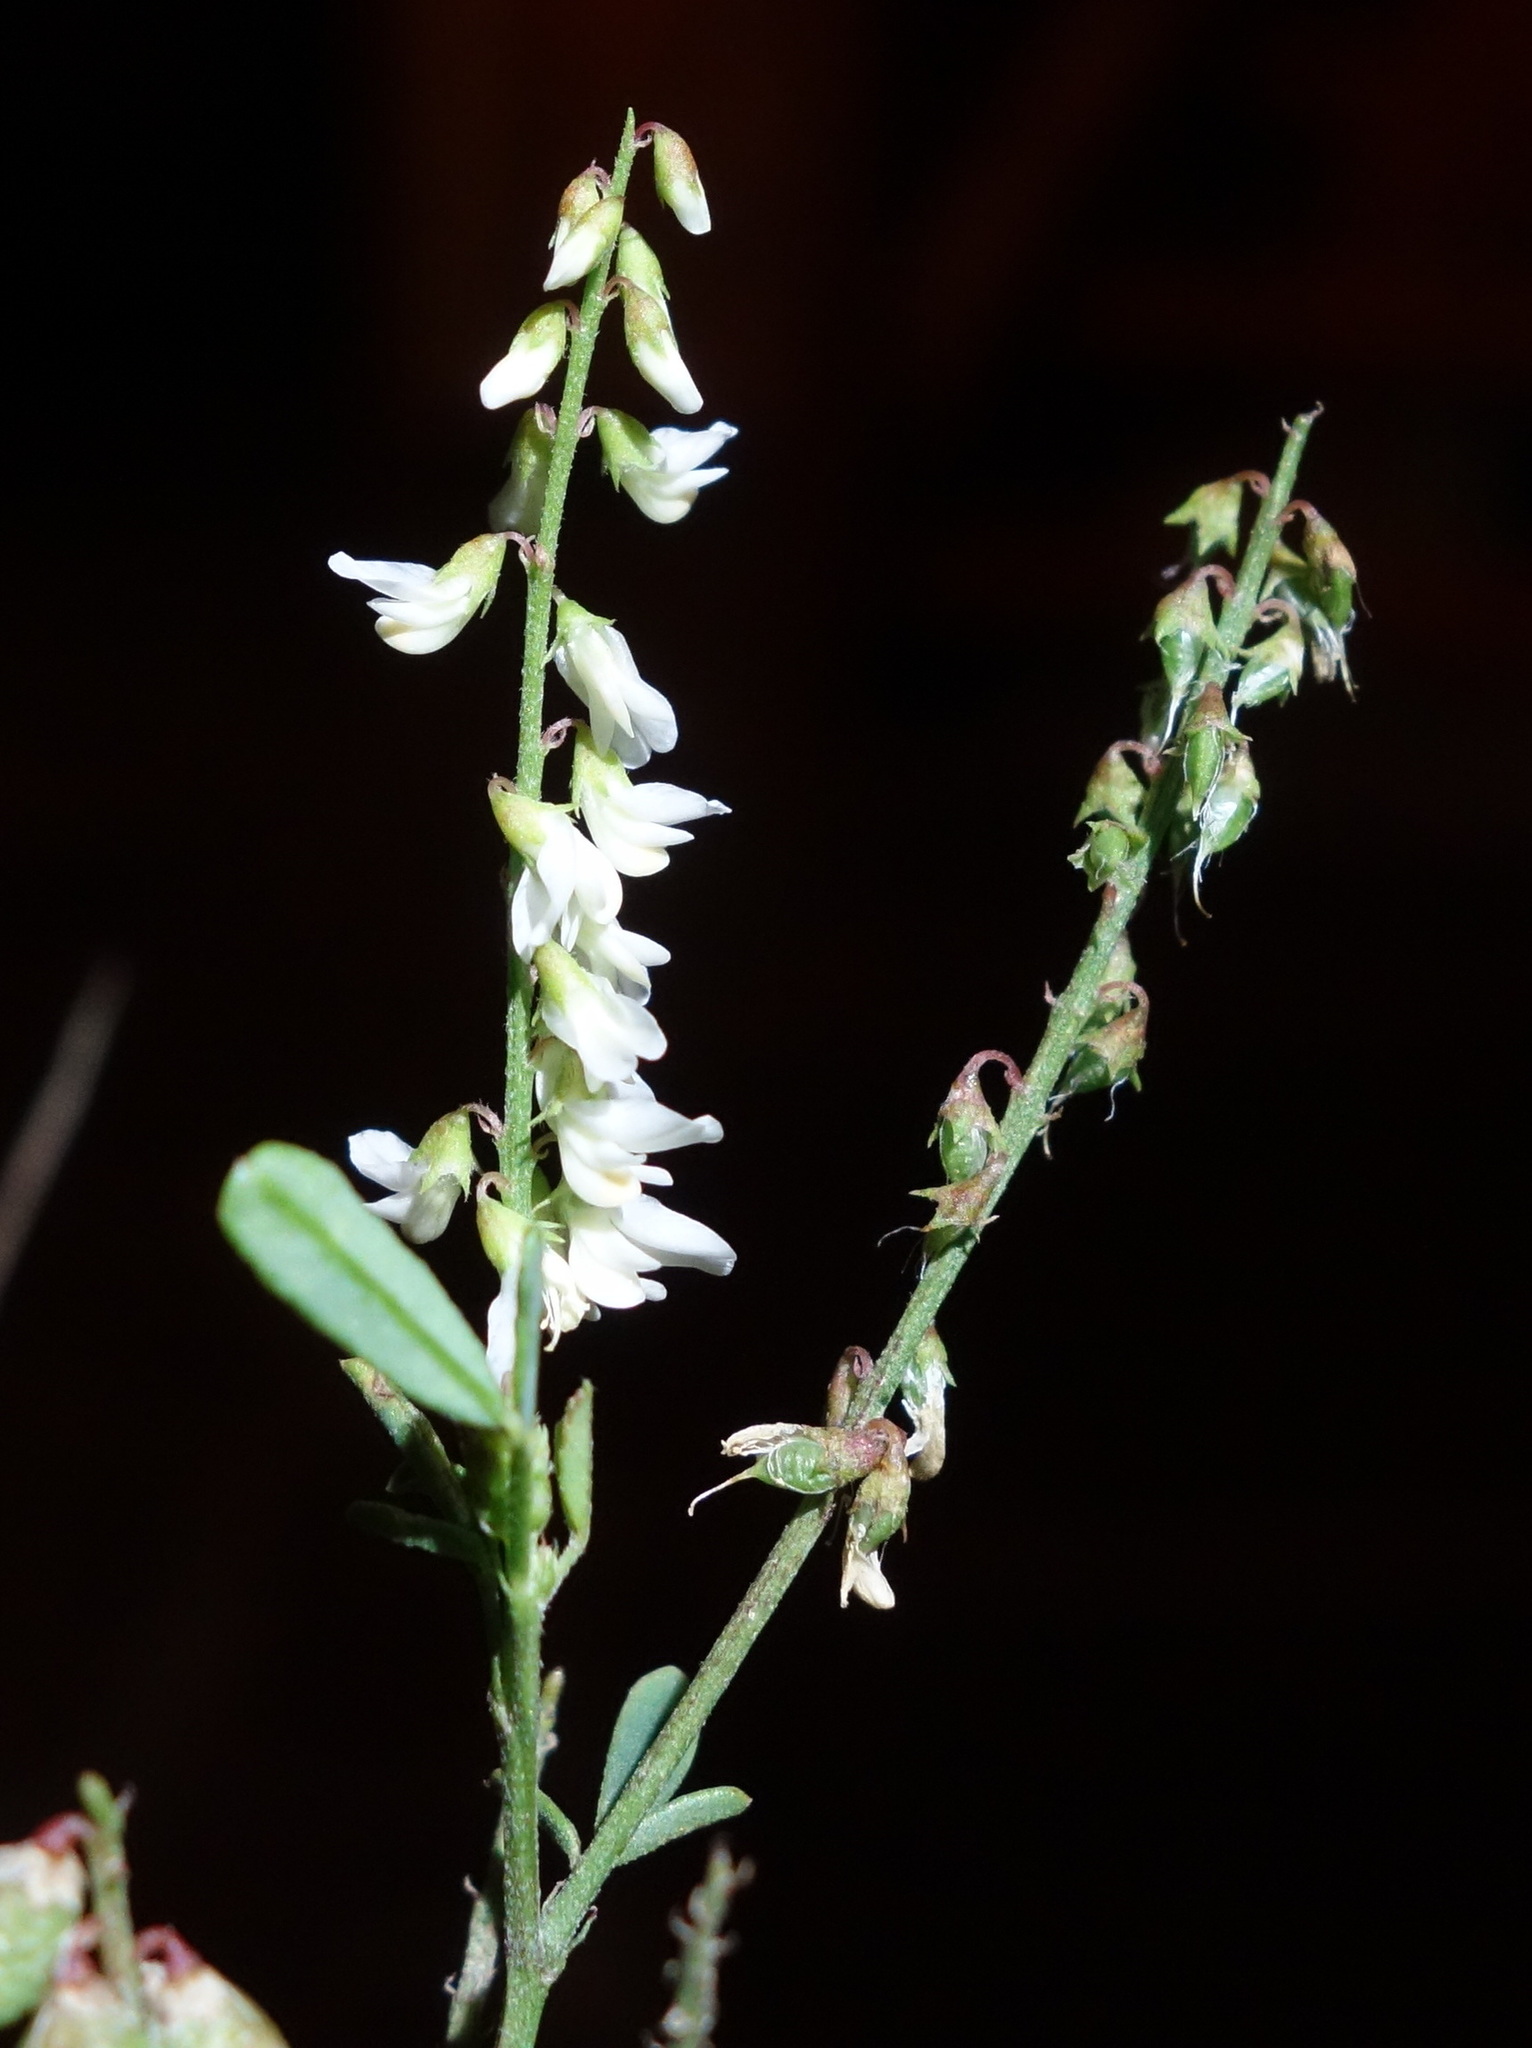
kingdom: Plantae
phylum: Tracheophyta
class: Magnoliopsida
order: Fabales
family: Fabaceae
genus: Melilotus
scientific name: Melilotus albus
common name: White melilot
